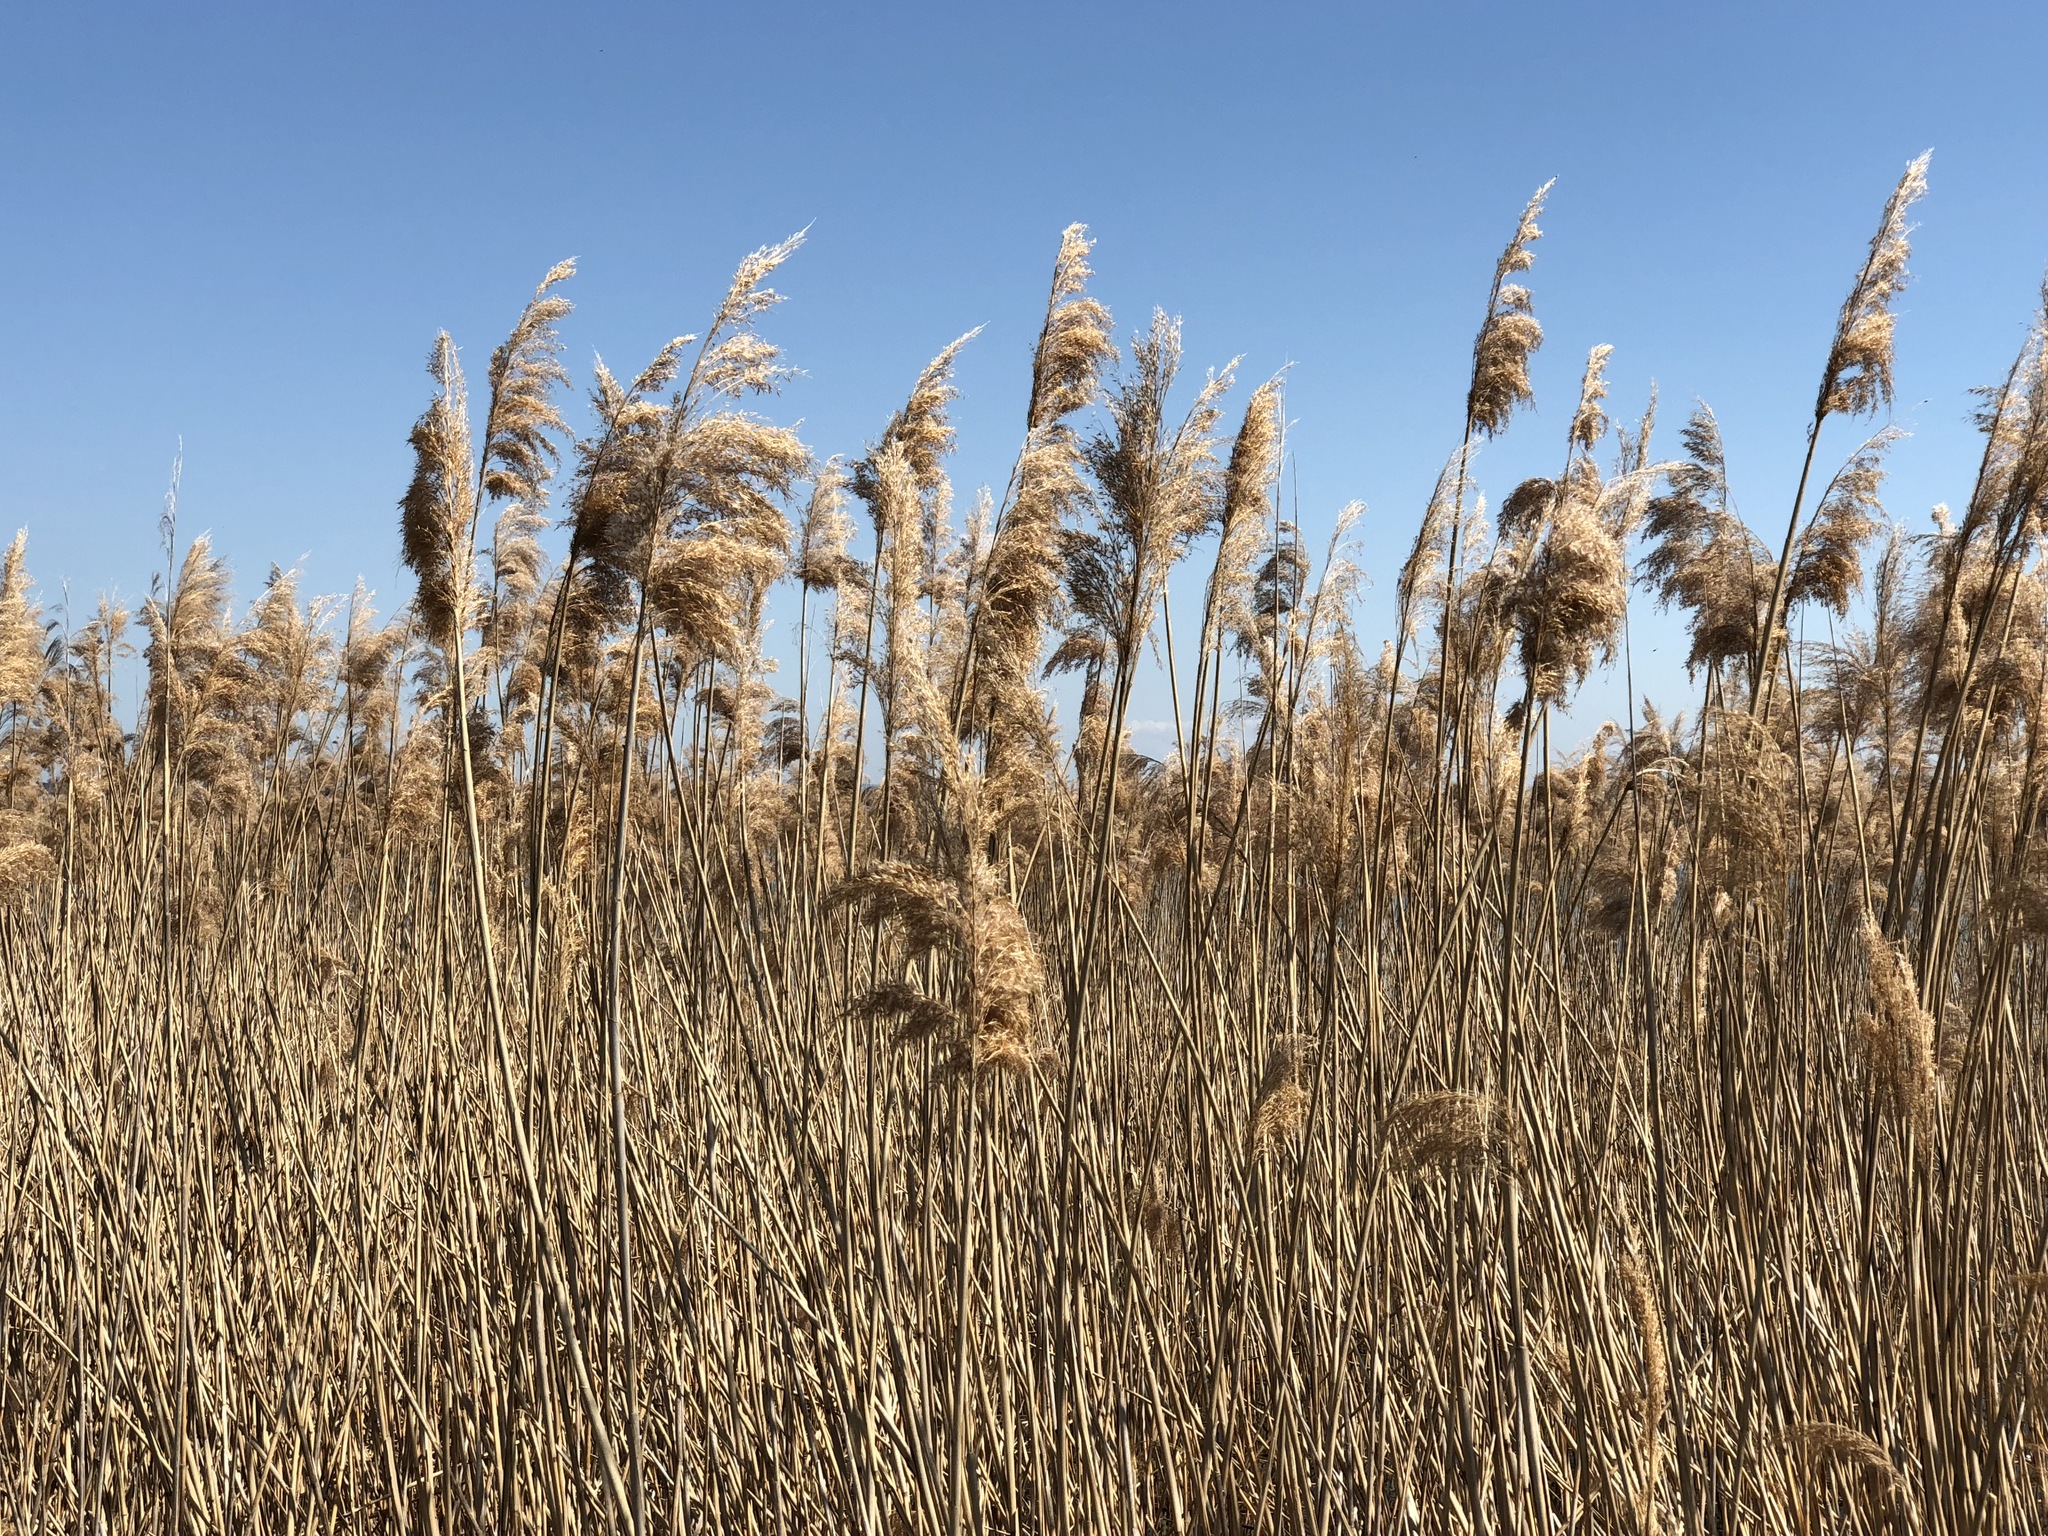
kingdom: Plantae
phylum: Tracheophyta
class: Liliopsida
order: Poales
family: Poaceae
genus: Phragmites
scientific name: Phragmites australis
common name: Common reed
